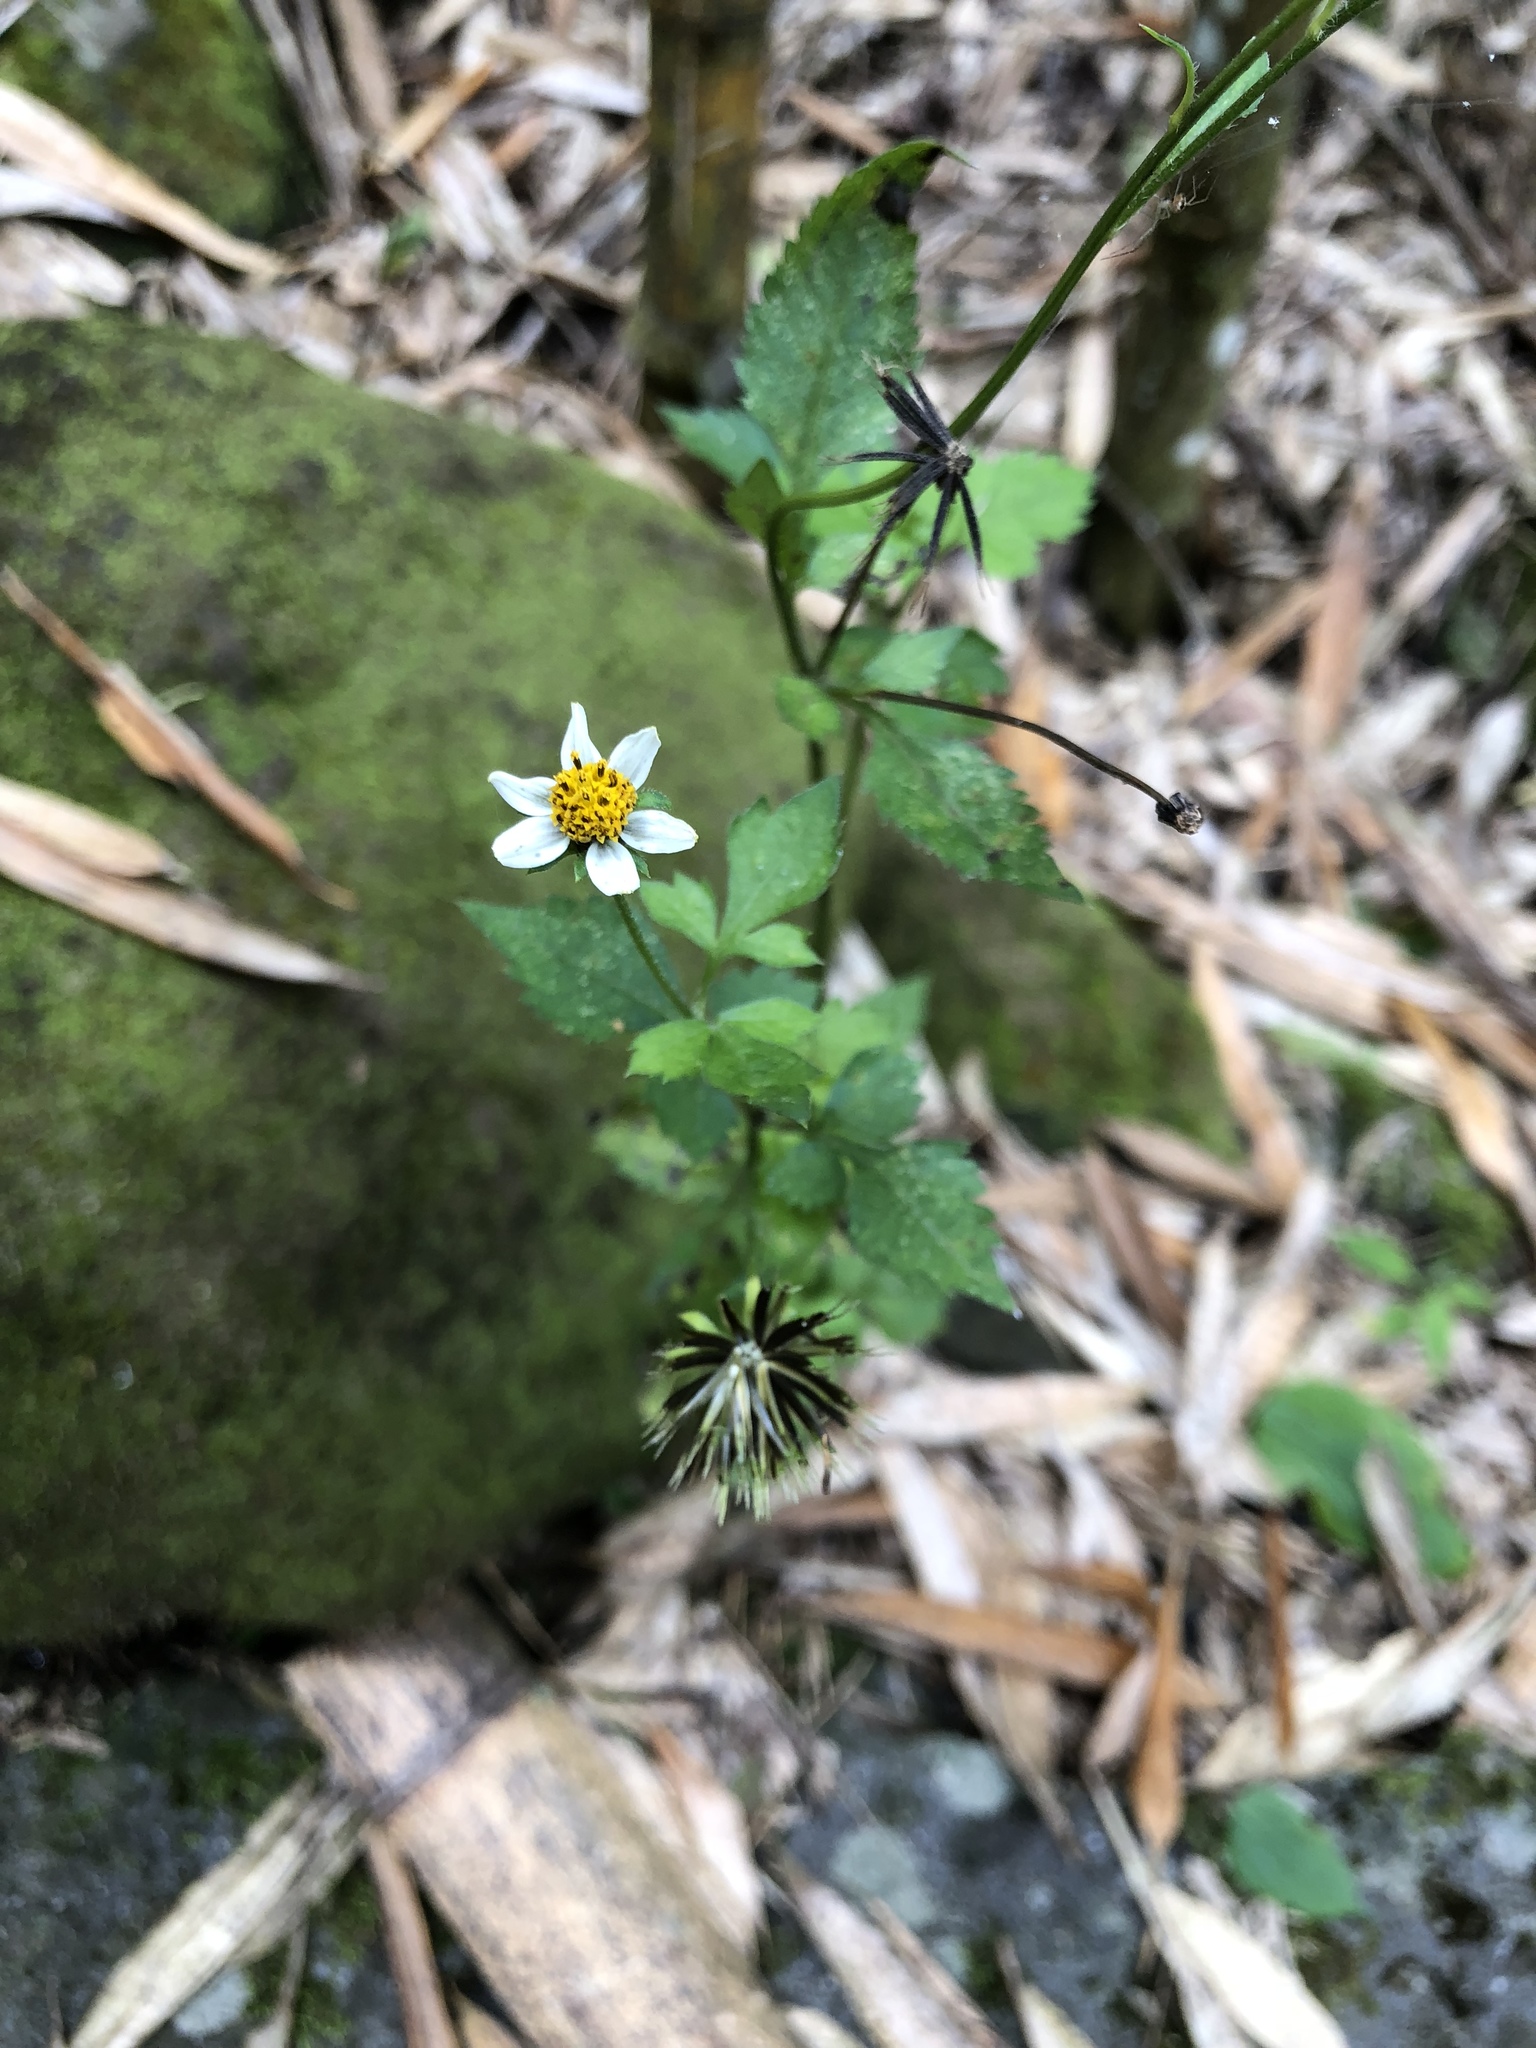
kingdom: Plantae
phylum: Tracheophyta
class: Magnoliopsida
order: Asterales
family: Asteraceae
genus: Bidens
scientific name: Bidens alba
